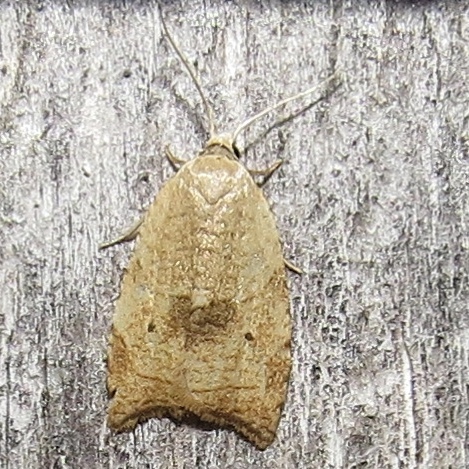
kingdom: Animalia
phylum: Arthropoda
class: Insecta
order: Lepidoptera
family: Tortricidae
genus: Coelostathma
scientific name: Coelostathma discopunctana
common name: Batman moth
